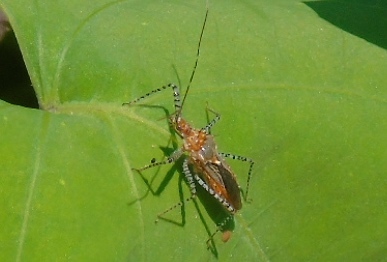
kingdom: Animalia
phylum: Arthropoda
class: Insecta
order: Hemiptera
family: Reduviidae
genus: Pselliopus
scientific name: Pselliopus punctipes
